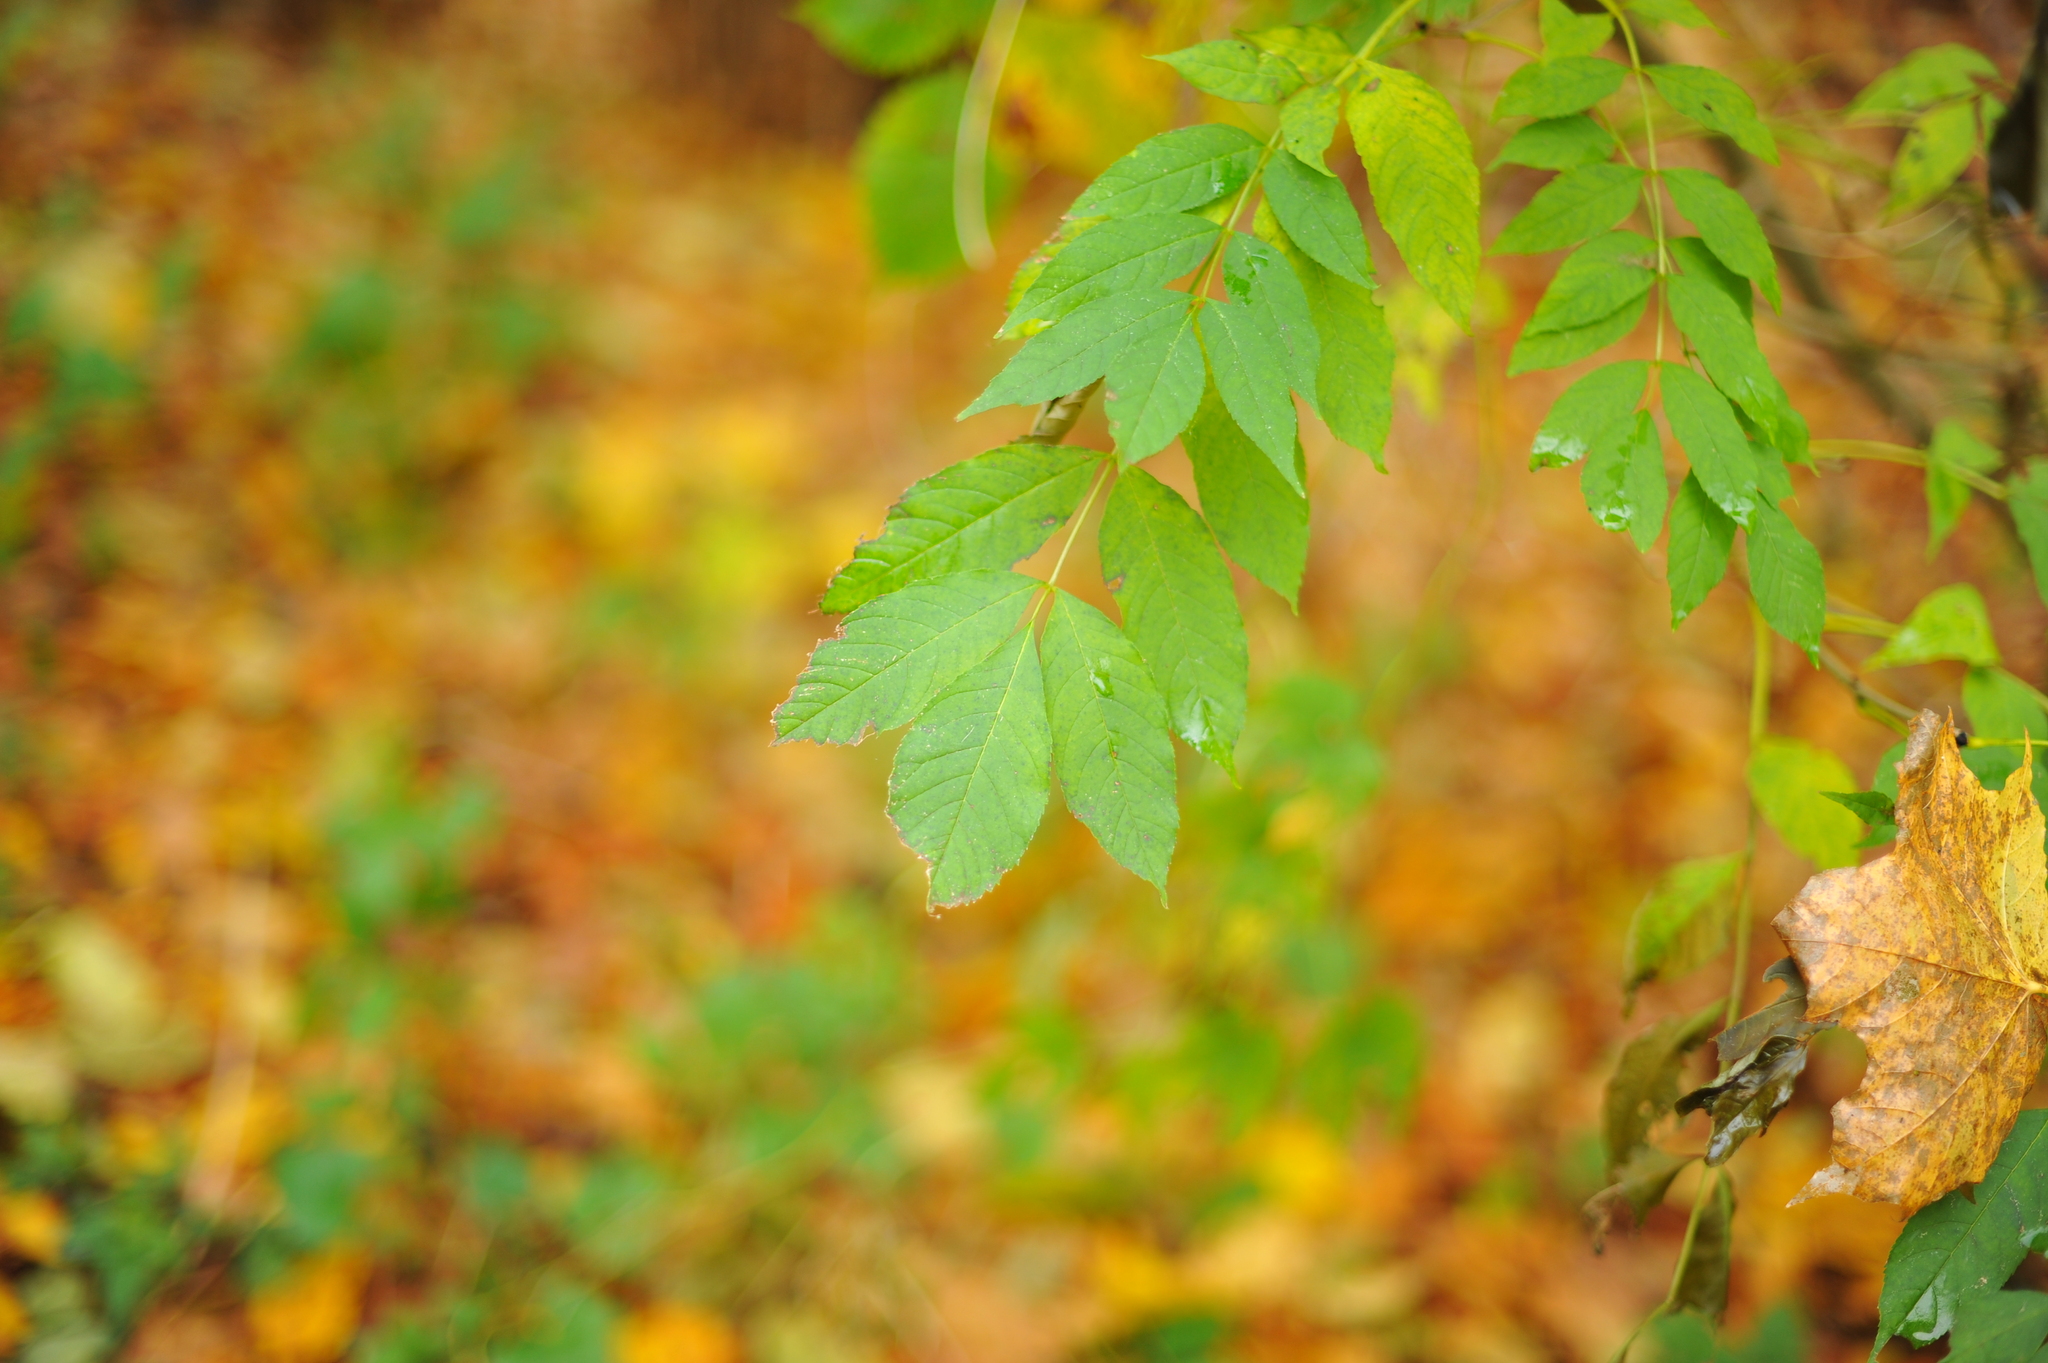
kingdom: Plantae
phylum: Tracheophyta
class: Magnoliopsida
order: Lamiales
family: Oleaceae
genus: Fraxinus
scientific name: Fraxinus excelsior
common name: European ash
